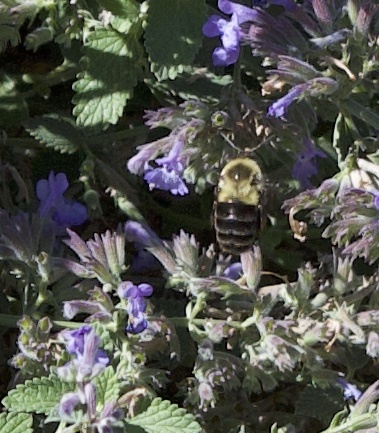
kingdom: Animalia
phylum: Arthropoda
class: Insecta
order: Hymenoptera
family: Apidae
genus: Bombus
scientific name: Bombus impatiens
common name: Common eastern bumble bee
